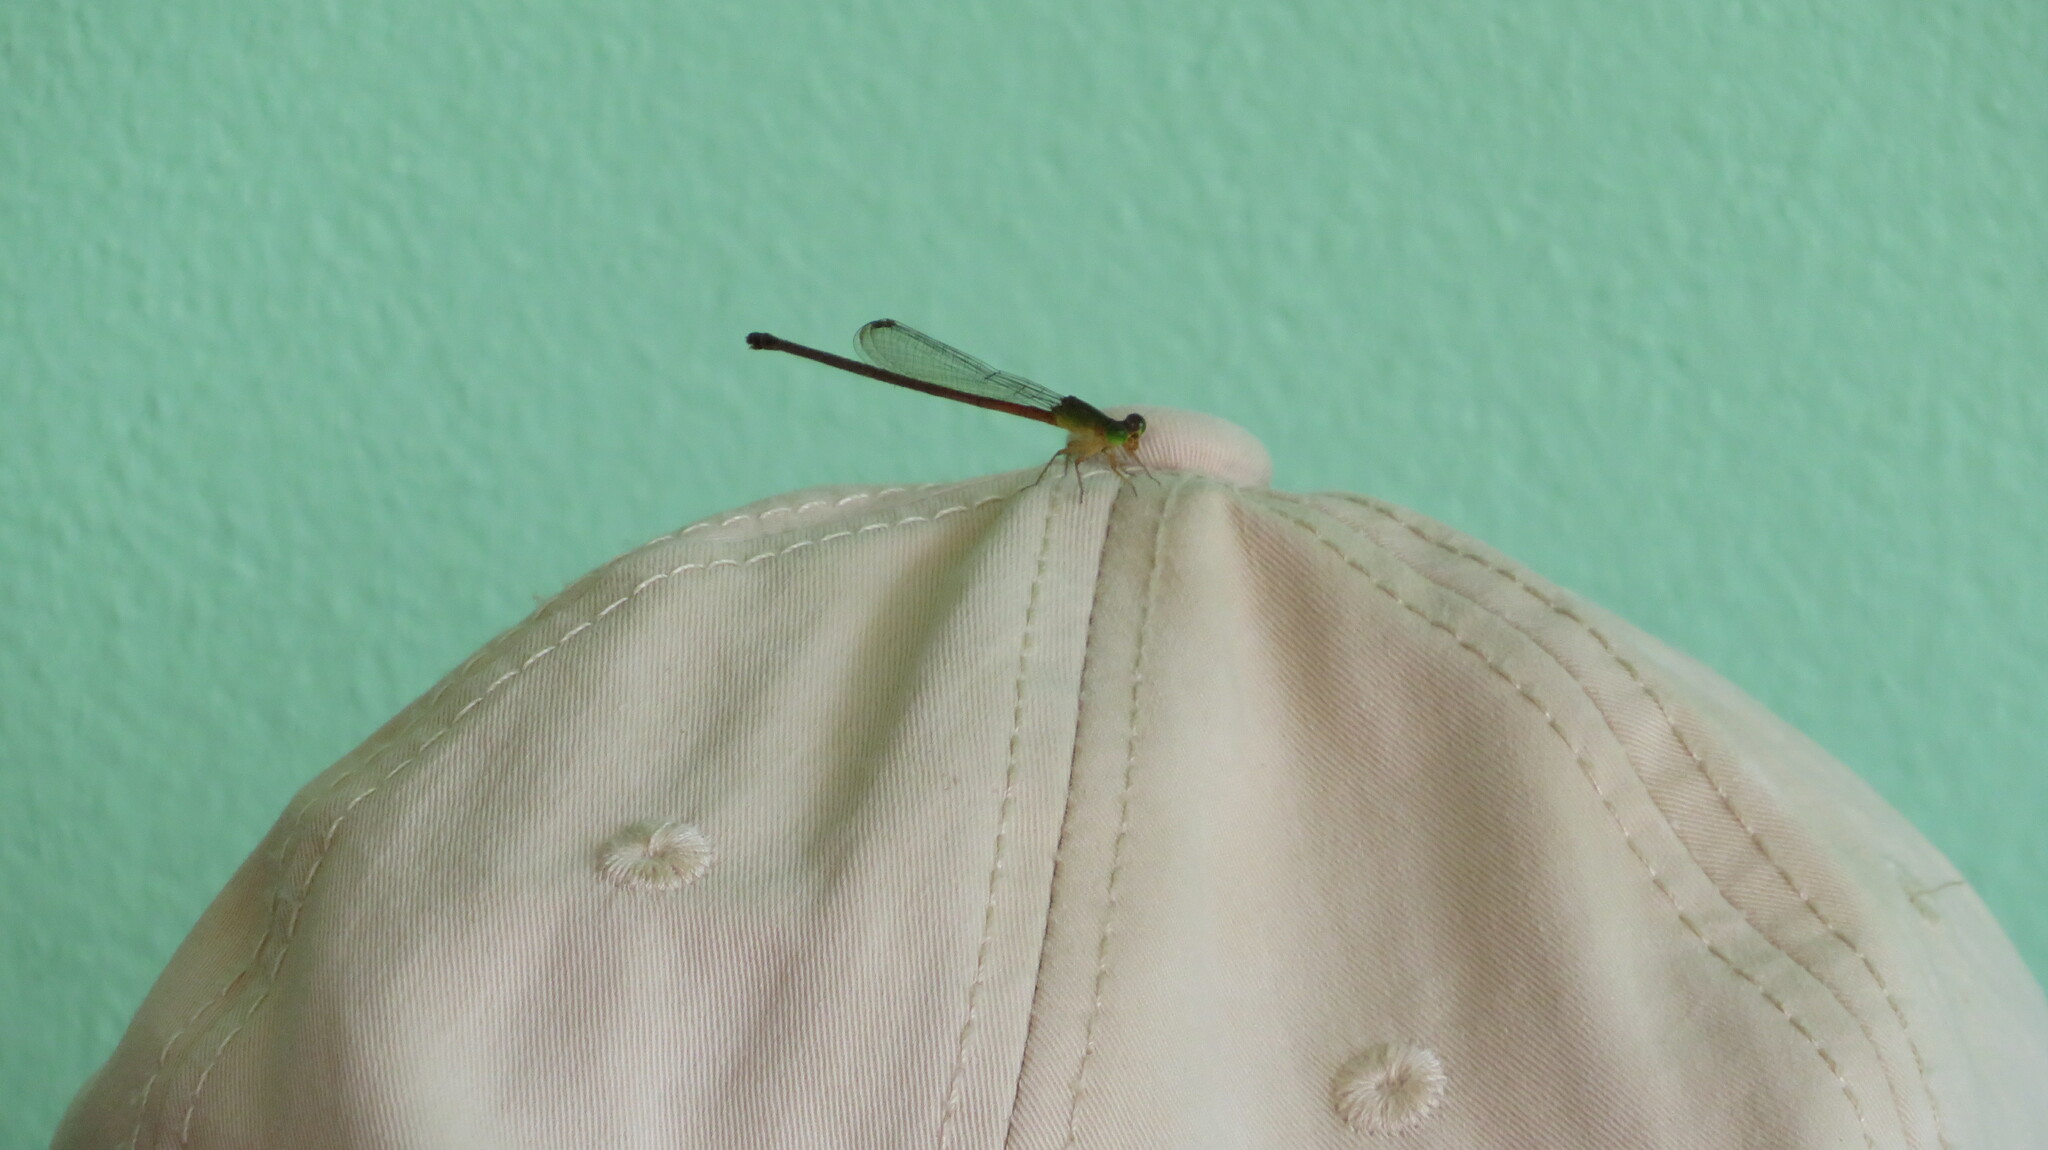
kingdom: Animalia
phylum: Arthropoda
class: Insecta
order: Odonata
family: Coenagrionidae
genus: Ceriagrion
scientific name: Ceriagrion auranticum
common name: Orange-tailed sprite
